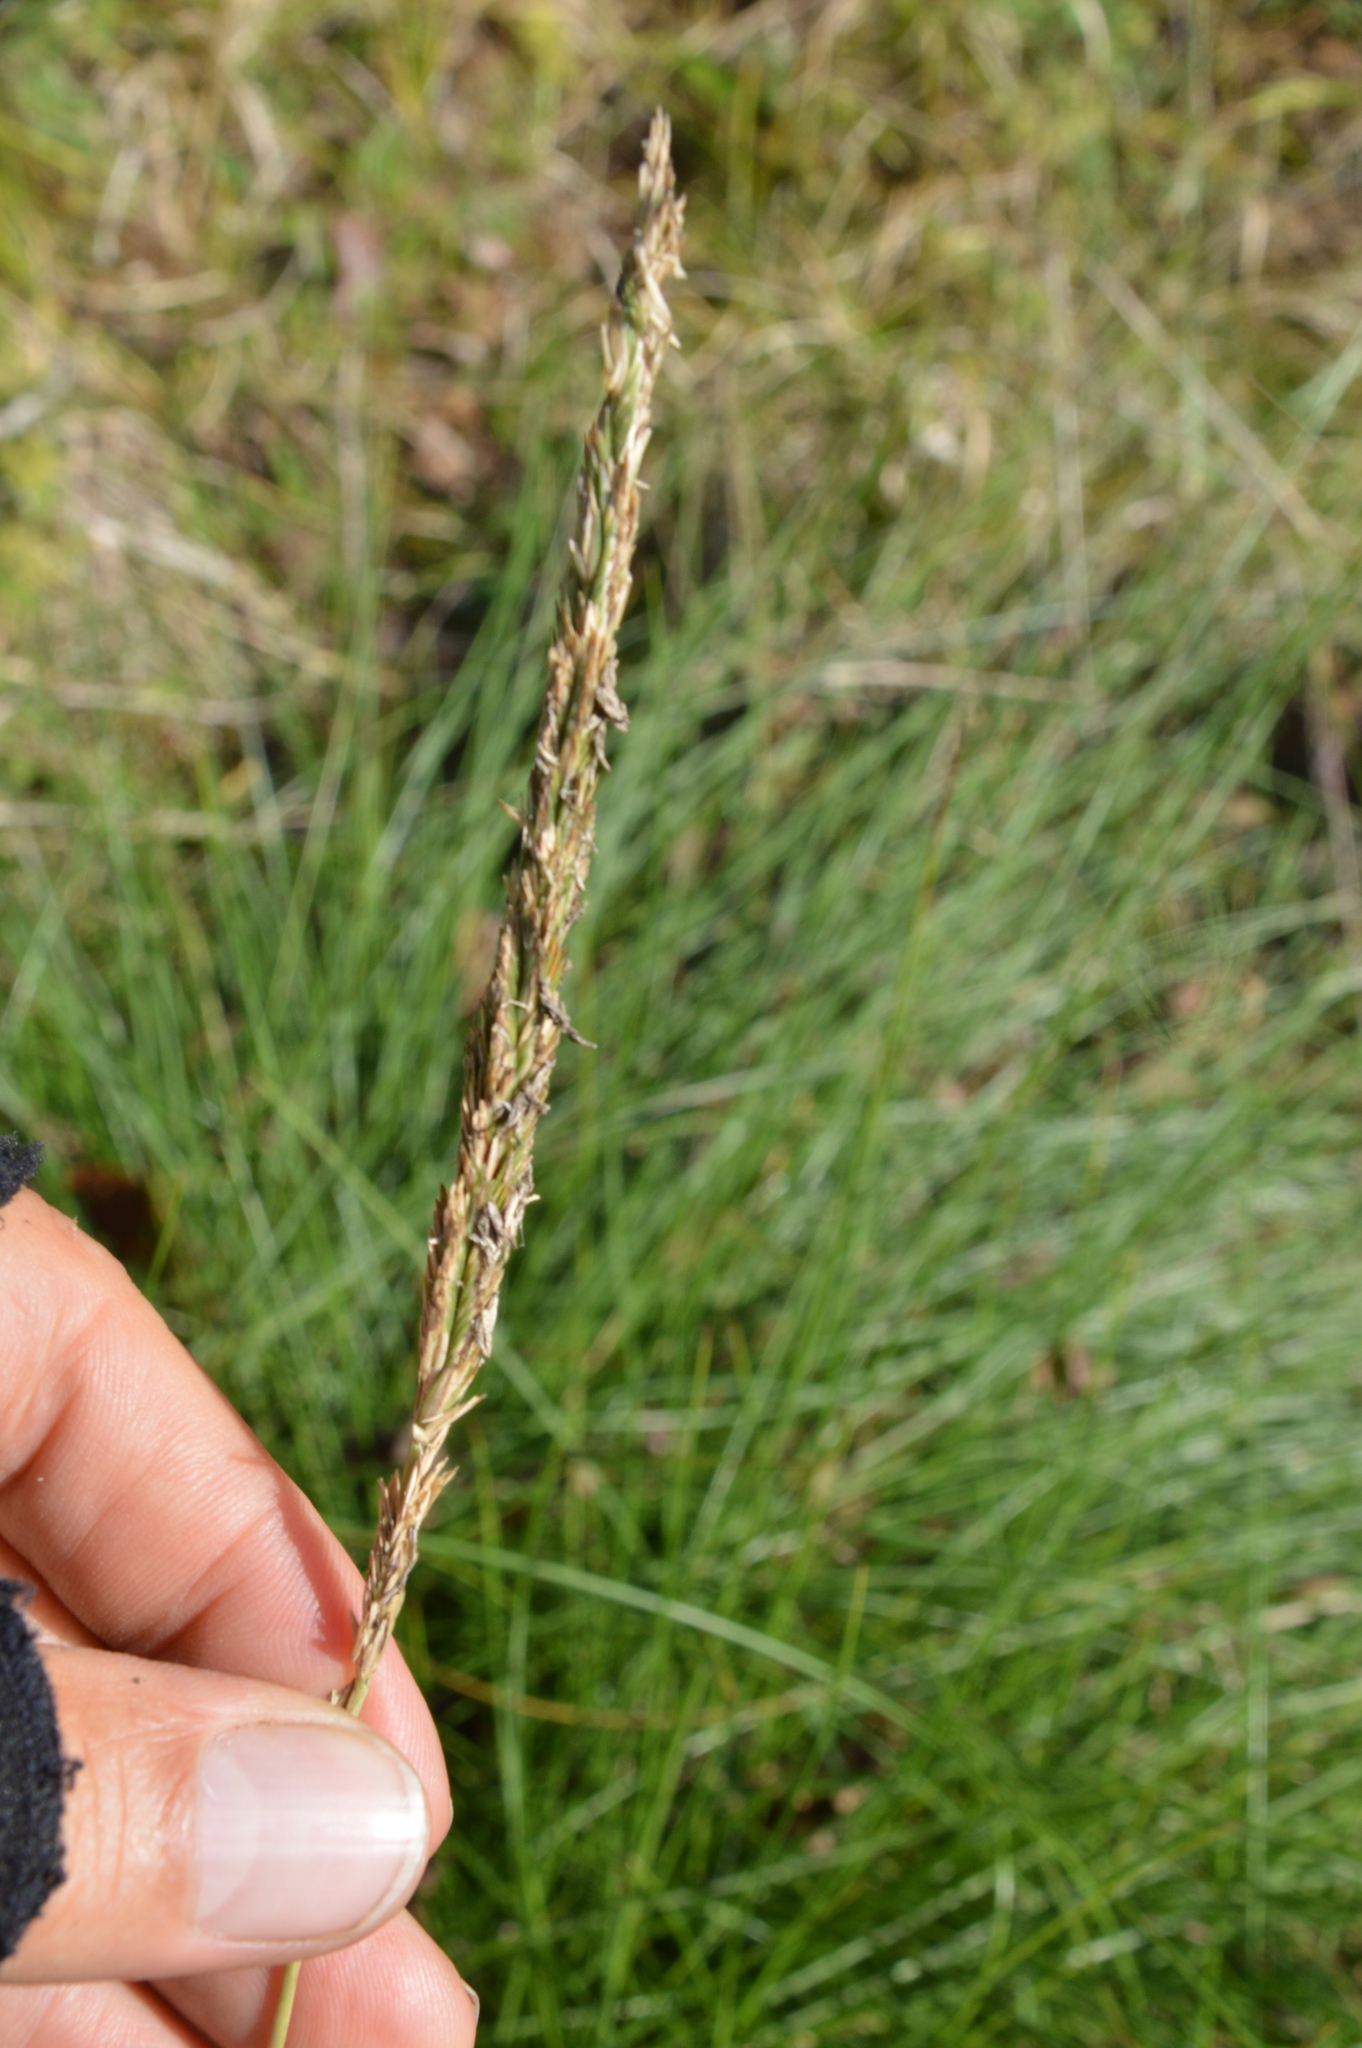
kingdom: Plantae
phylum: Tracheophyta
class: Liliopsida
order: Poales
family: Poaceae
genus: Sporobolus
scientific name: Sporobolus spartinae
